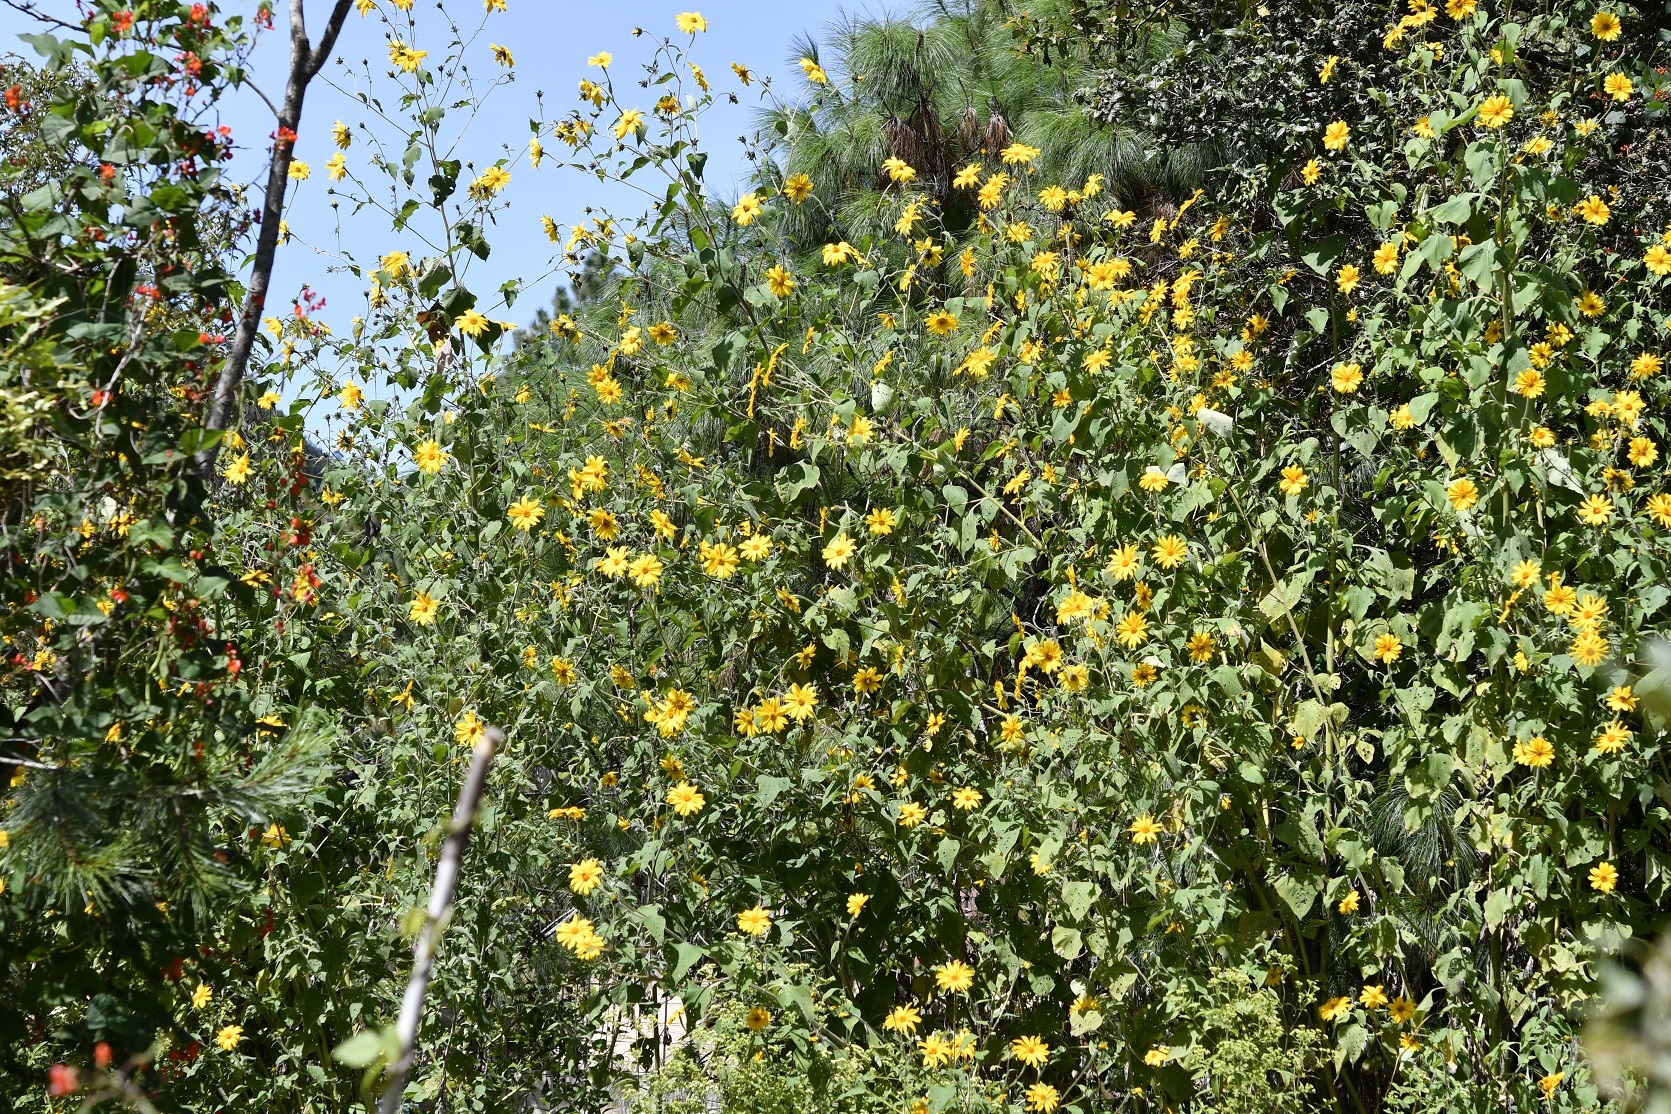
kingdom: Plantae
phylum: Tracheophyta
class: Magnoliopsida
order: Asterales
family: Asteraceae
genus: Tithonia
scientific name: Tithonia tubaeformis
